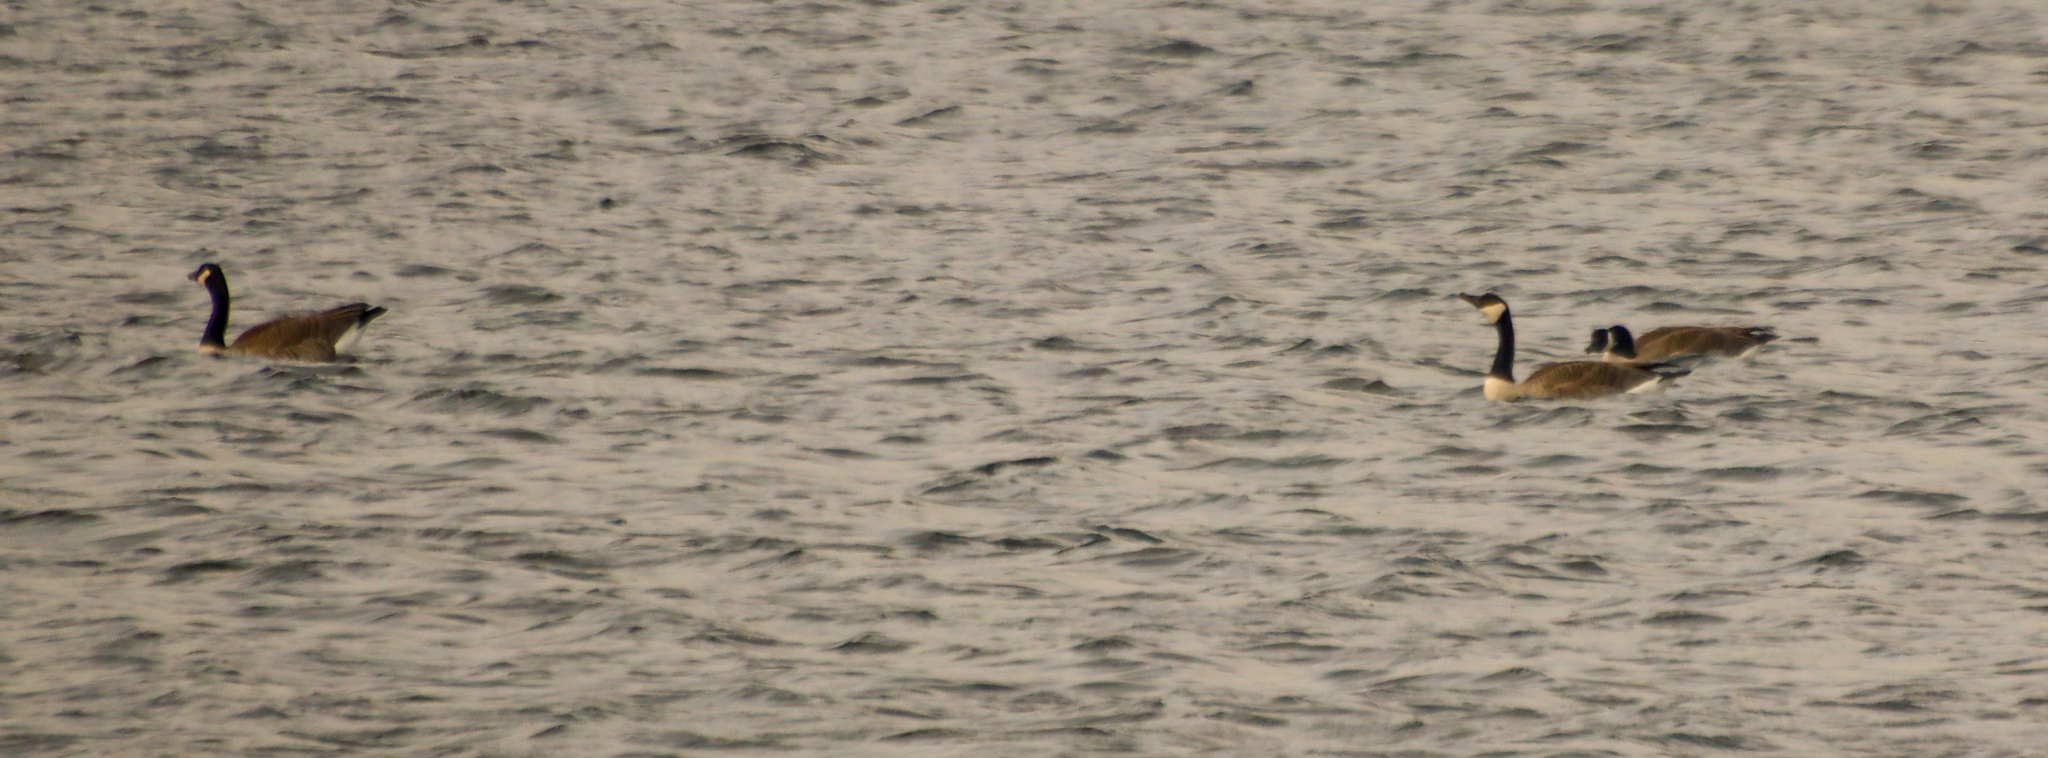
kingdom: Animalia
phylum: Chordata
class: Aves
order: Anseriformes
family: Anatidae
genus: Branta
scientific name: Branta canadensis
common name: Canada goose
